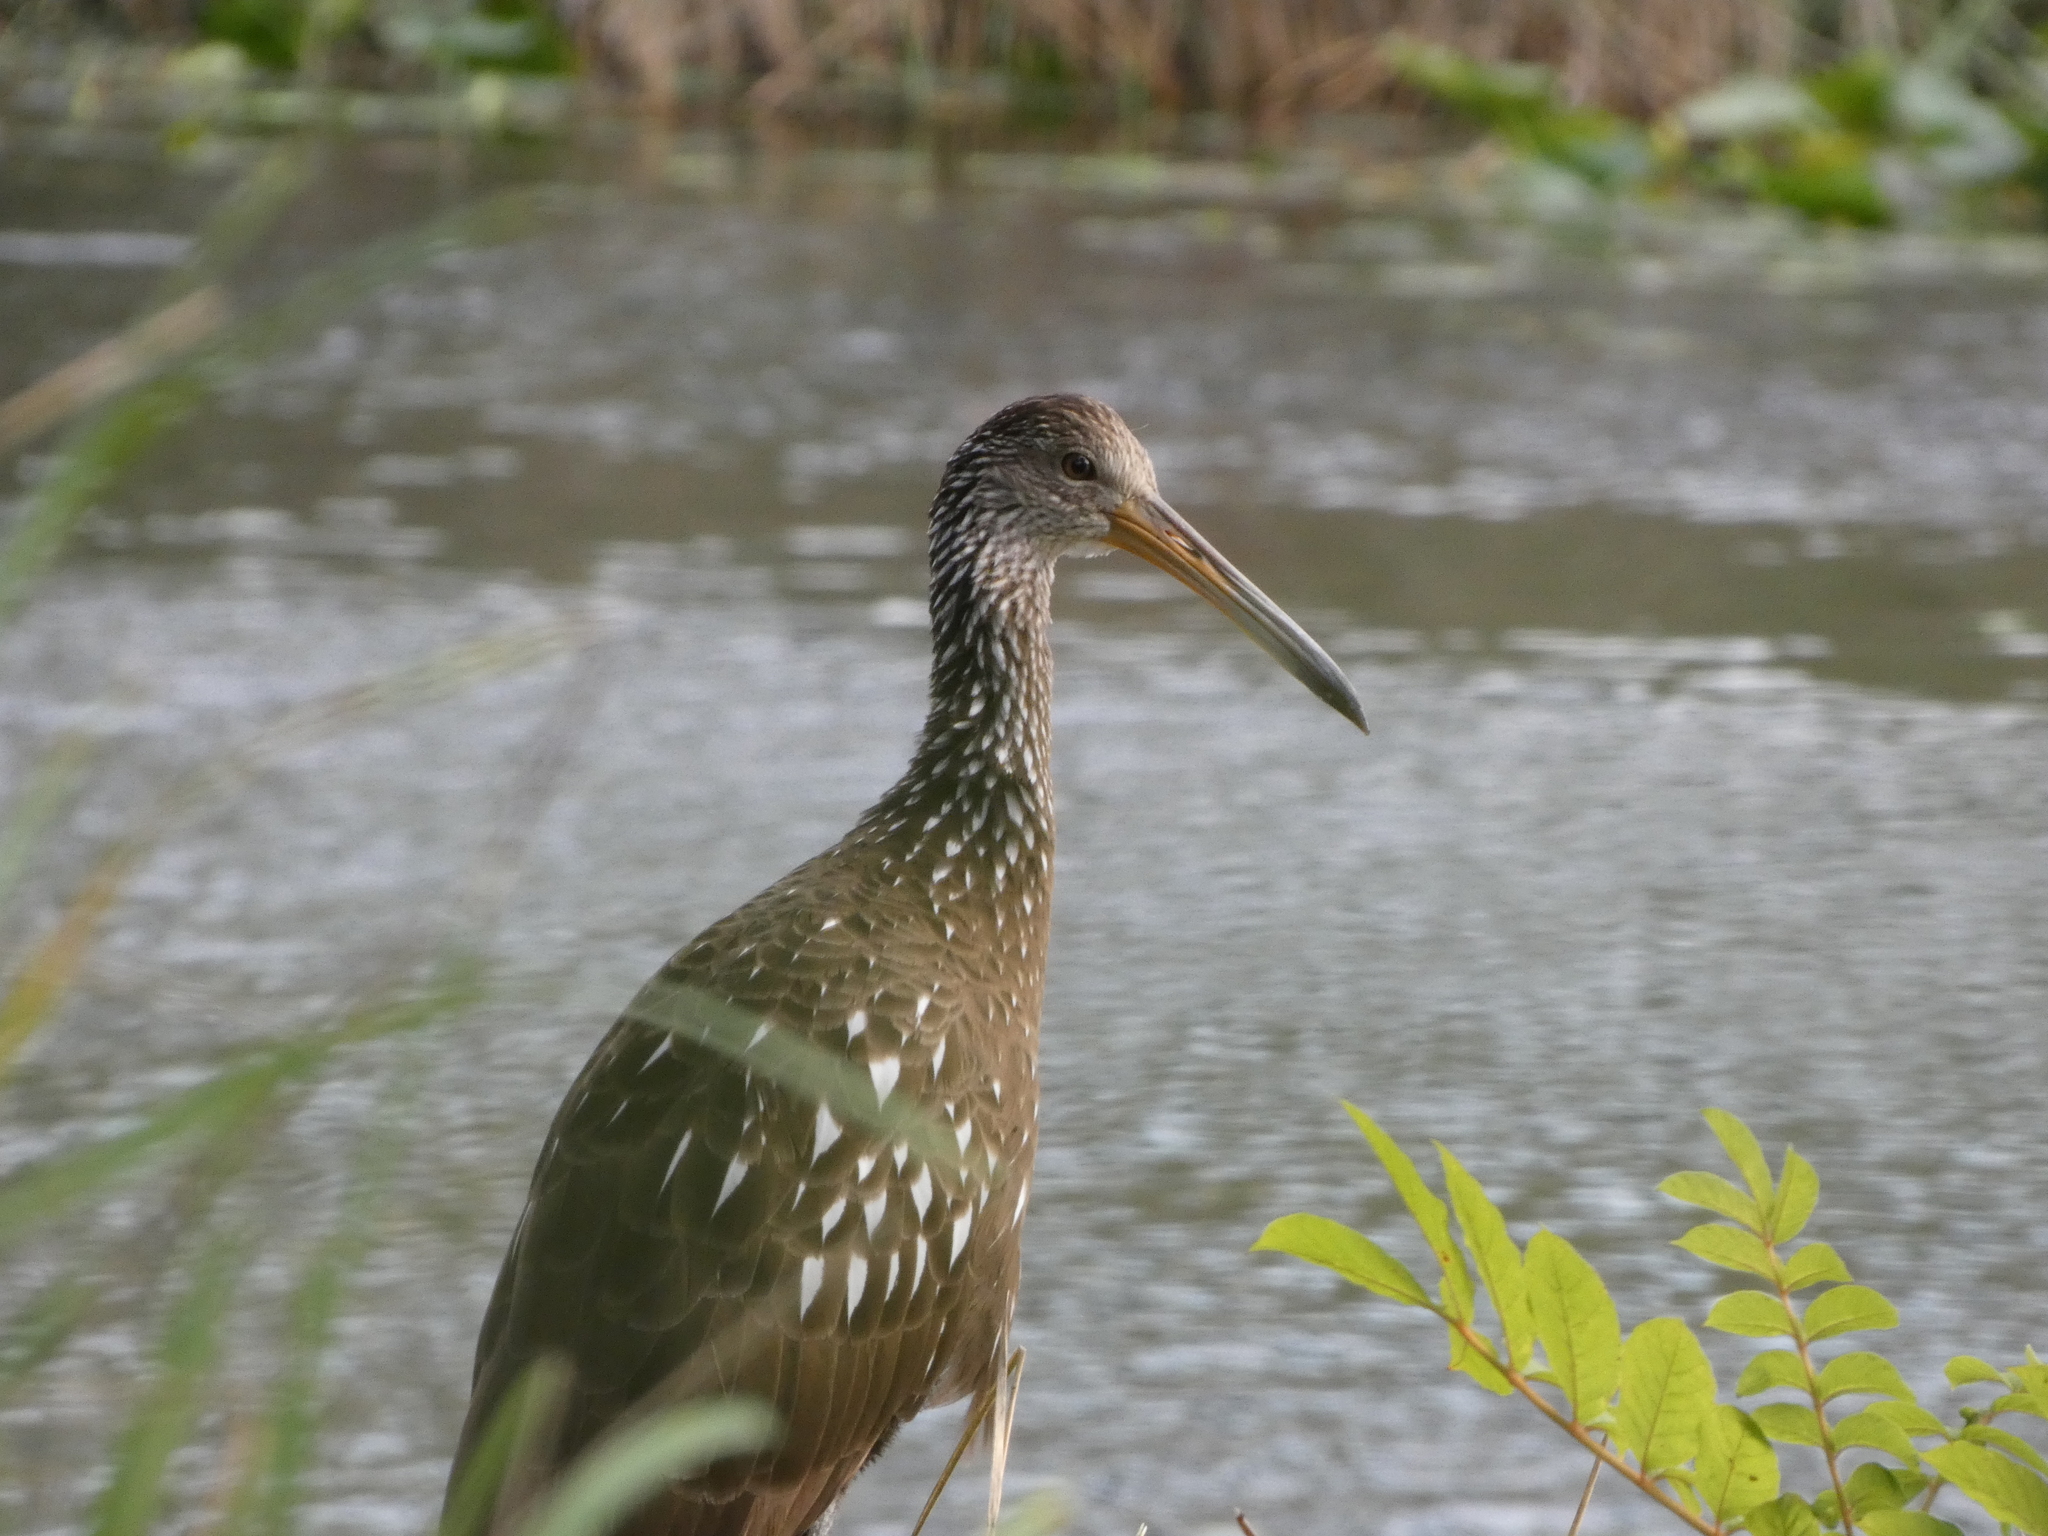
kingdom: Animalia
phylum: Chordata
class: Aves
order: Gruiformes
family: Aramidae
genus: Aramus
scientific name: Aramus guarauna
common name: Limpkin
